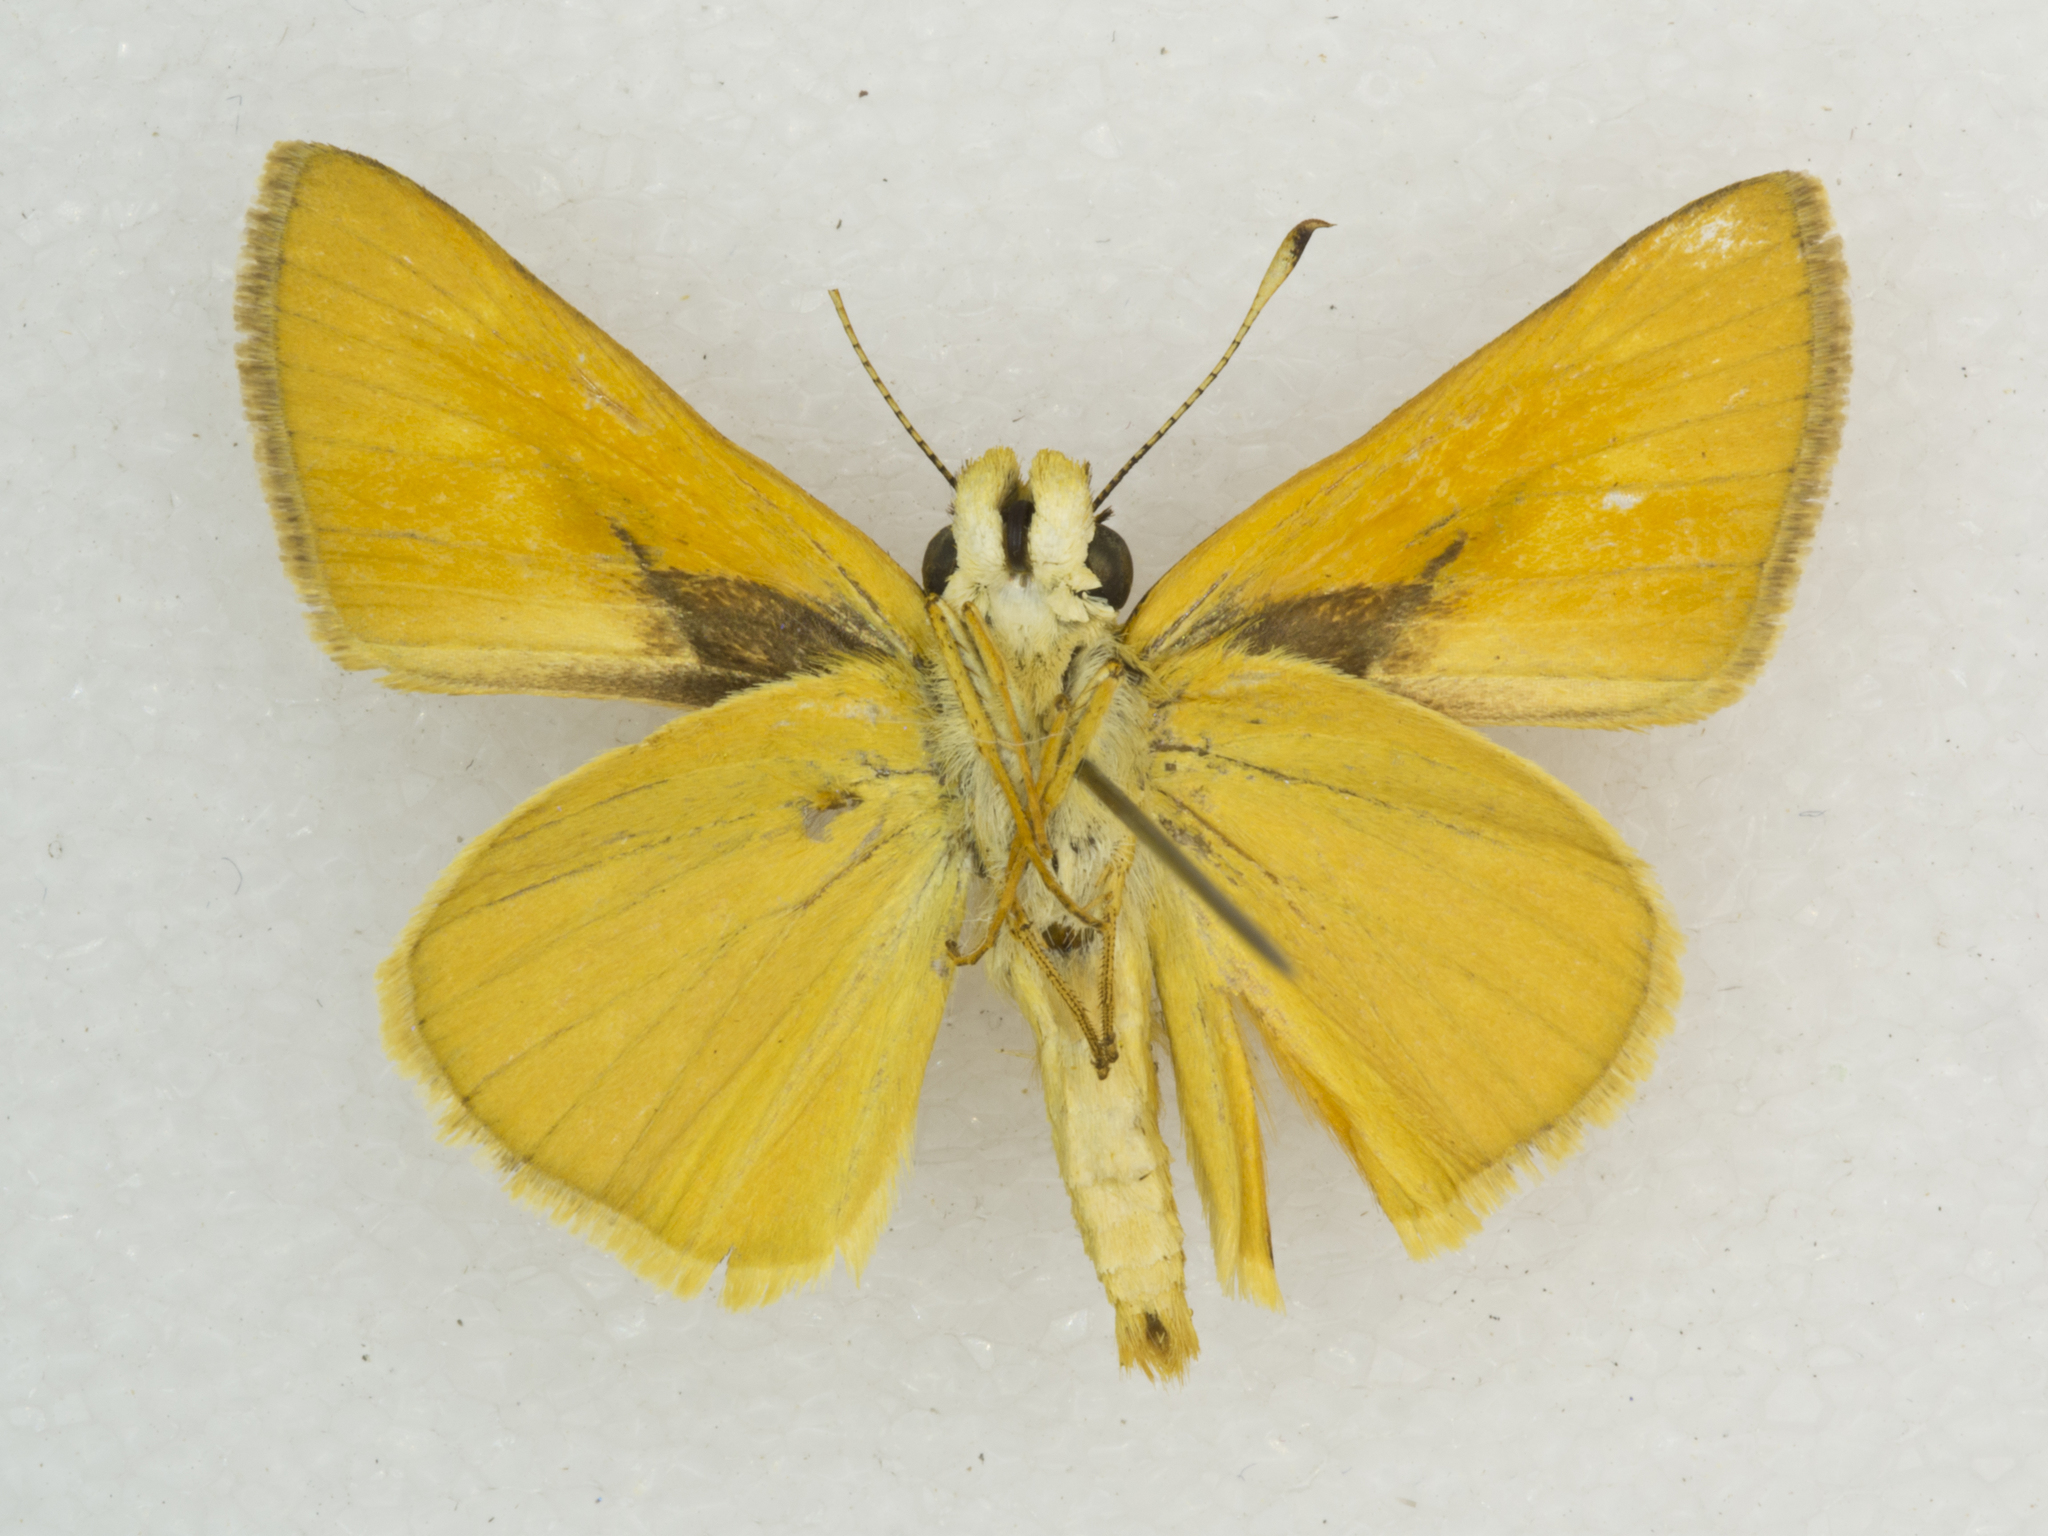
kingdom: Animalia
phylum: Arthropoda
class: Insecta
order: Lepidoptera
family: Hesperiidae
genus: Ochlodes
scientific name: Ochlodes sylvanoides
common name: Woodland skipper
